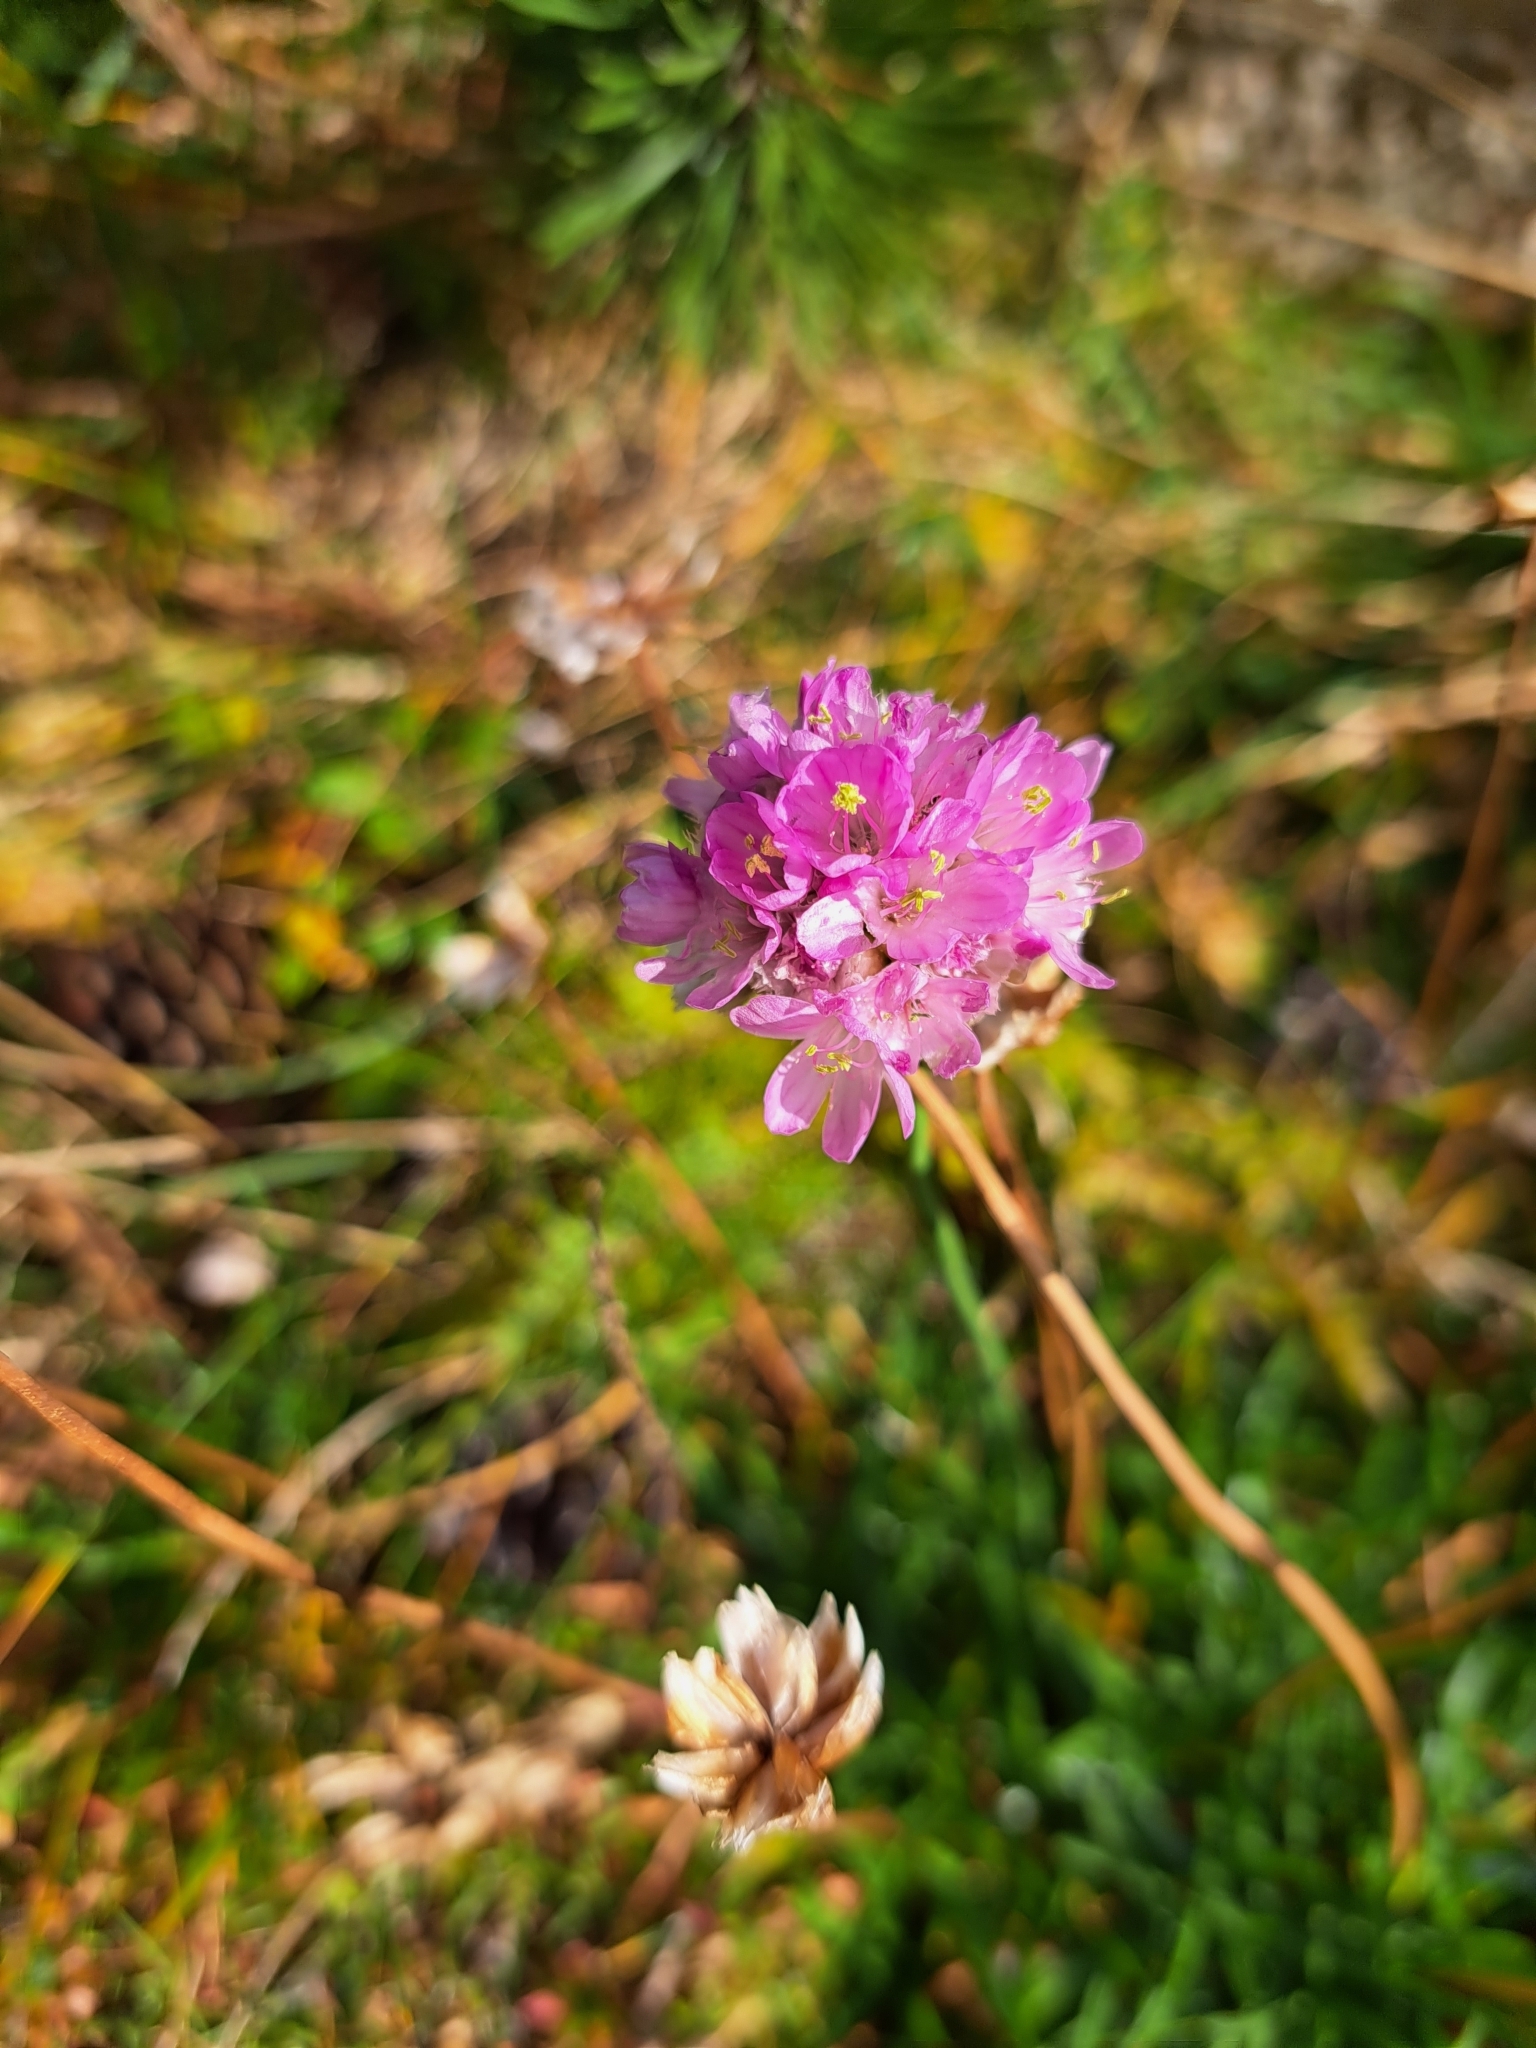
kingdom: Plantae
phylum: Tracheophyta
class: Magnoliopsida
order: Caryophyllales
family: Plumbaginaceae
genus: Armeria
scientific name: Armeria alpina
